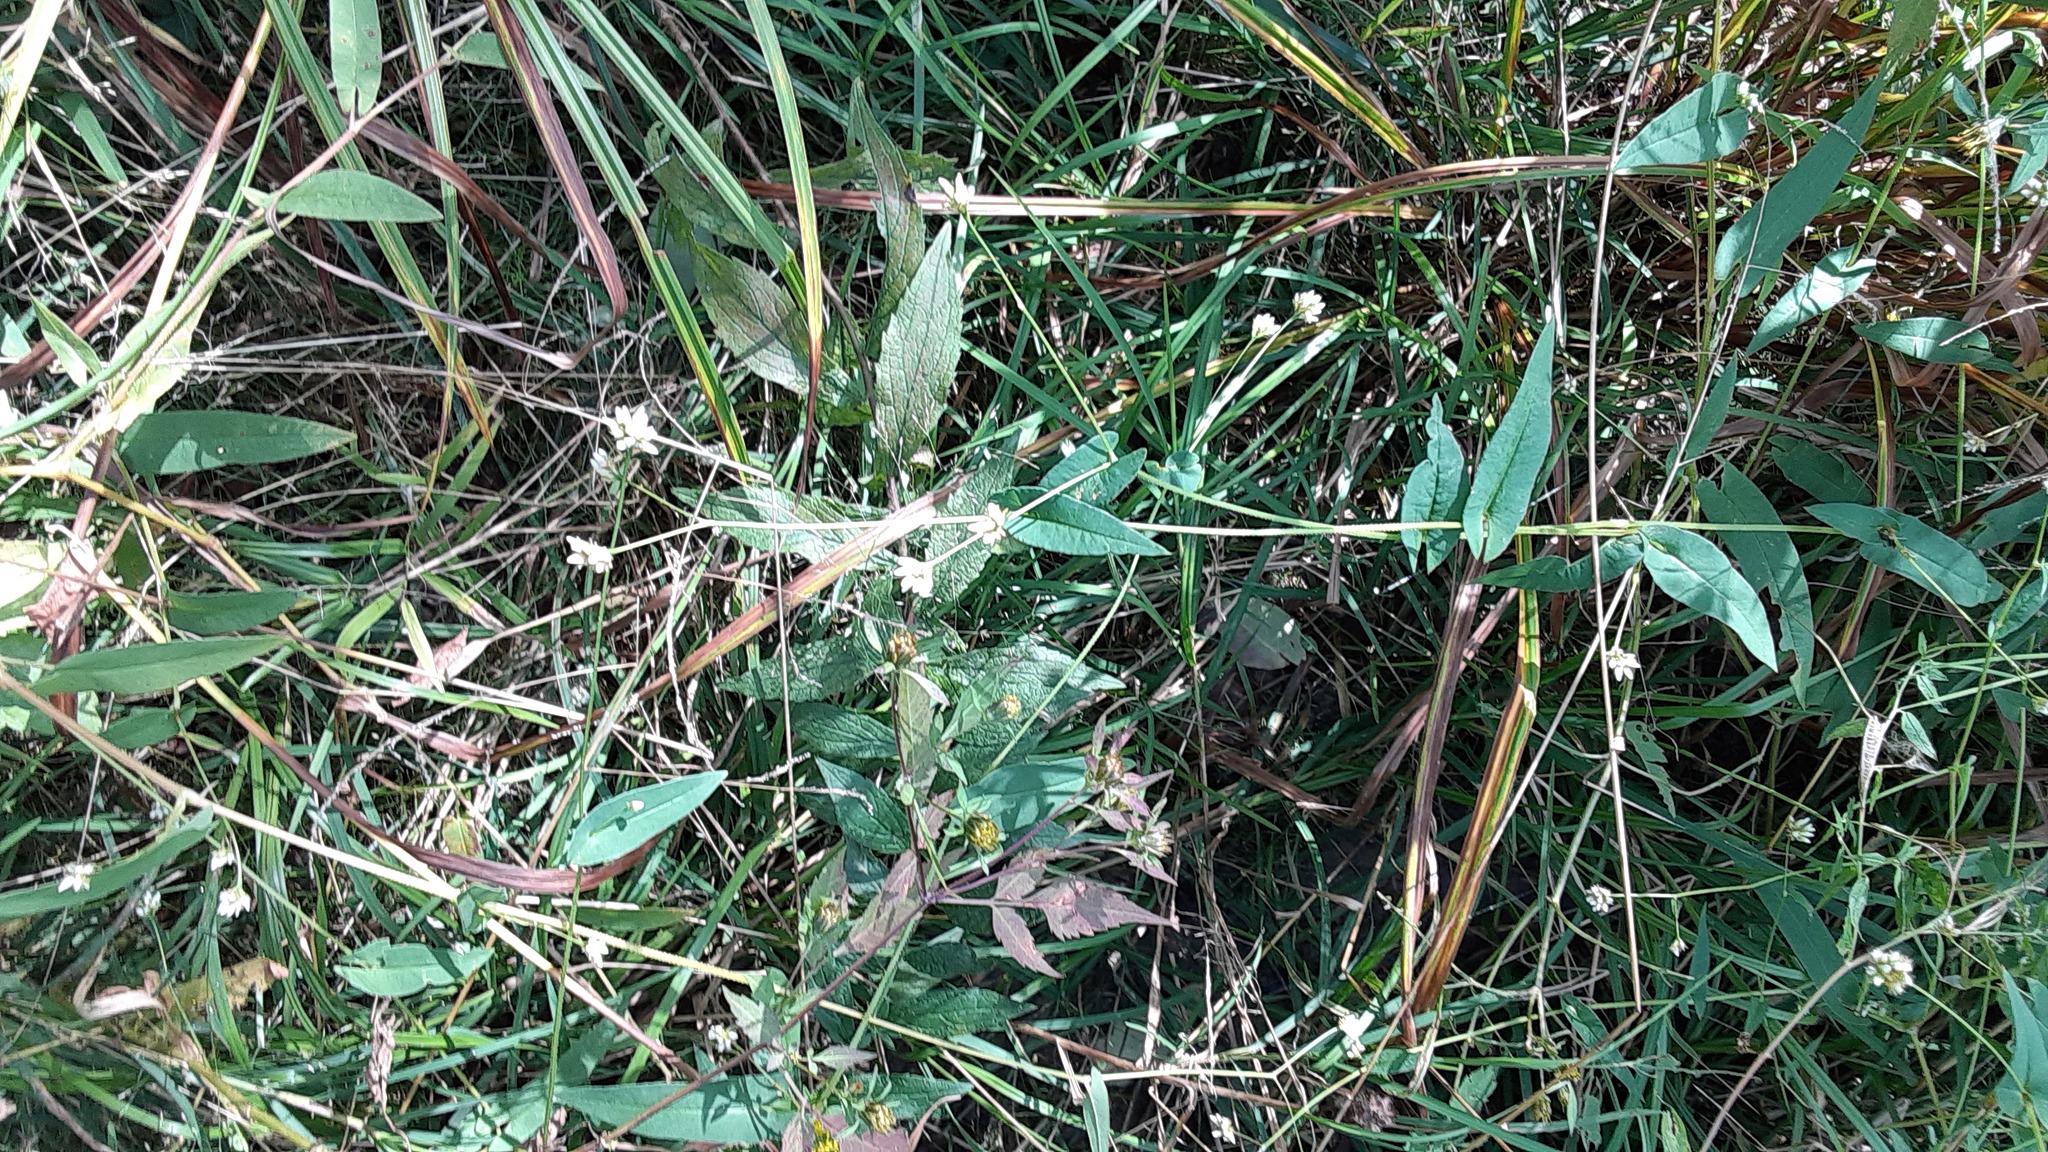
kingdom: Plantae
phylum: Tracheophyta
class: Magnoliopsida
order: Caryophyllales
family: Polygonaceae
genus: Persicaria
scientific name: Persicaria sagittata
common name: American tearthumb
